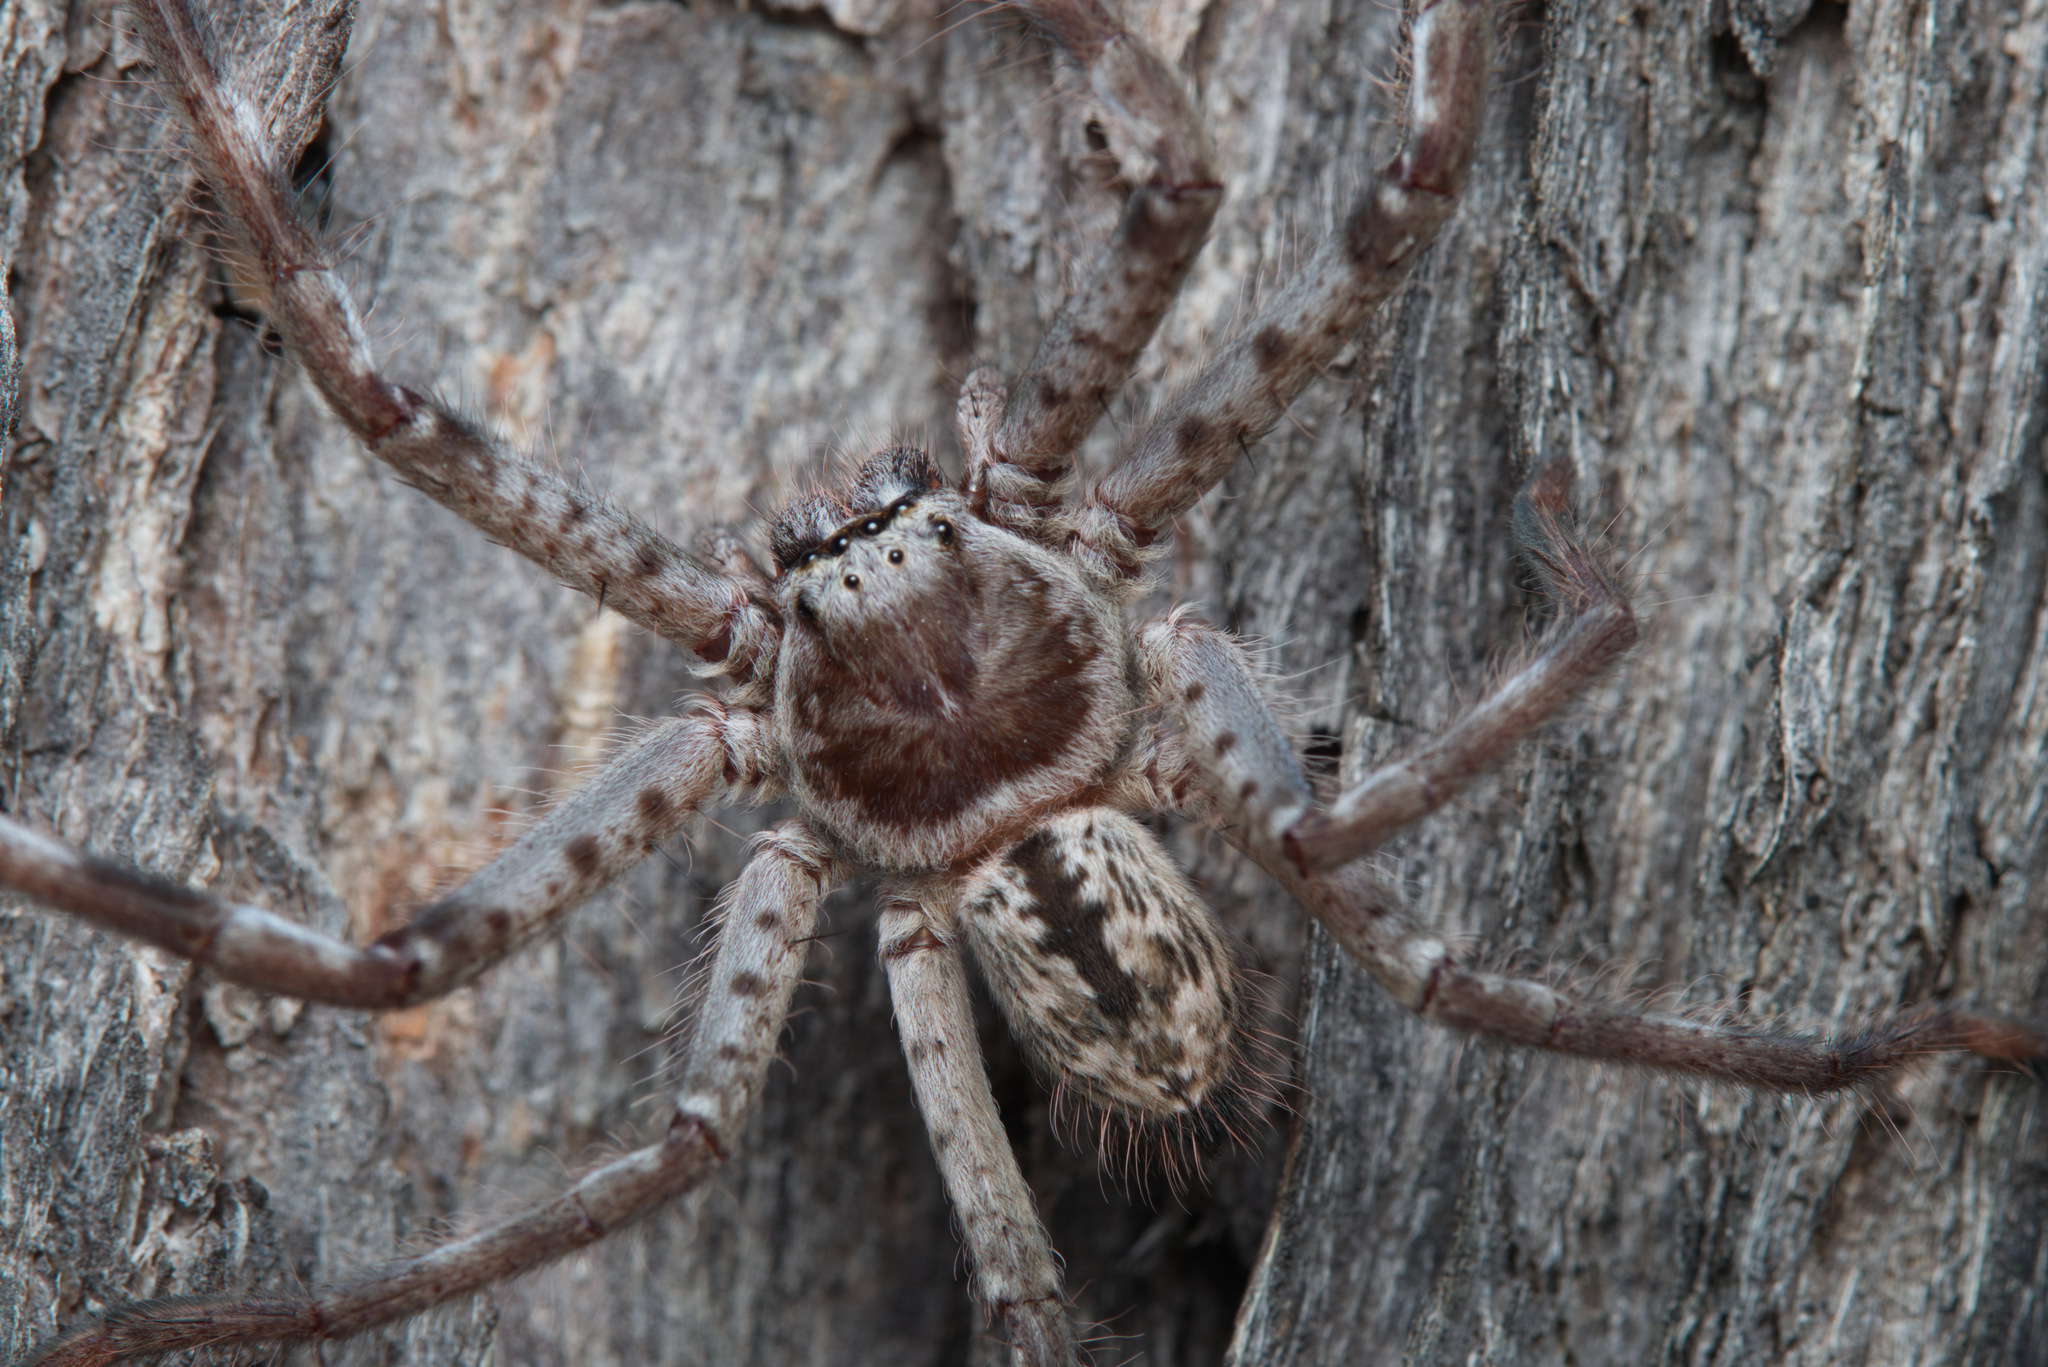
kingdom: Animalia
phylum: Arthropoda
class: Arachnida
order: Araneae
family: Sparassidae
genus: Holconia
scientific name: Holconia immanis
